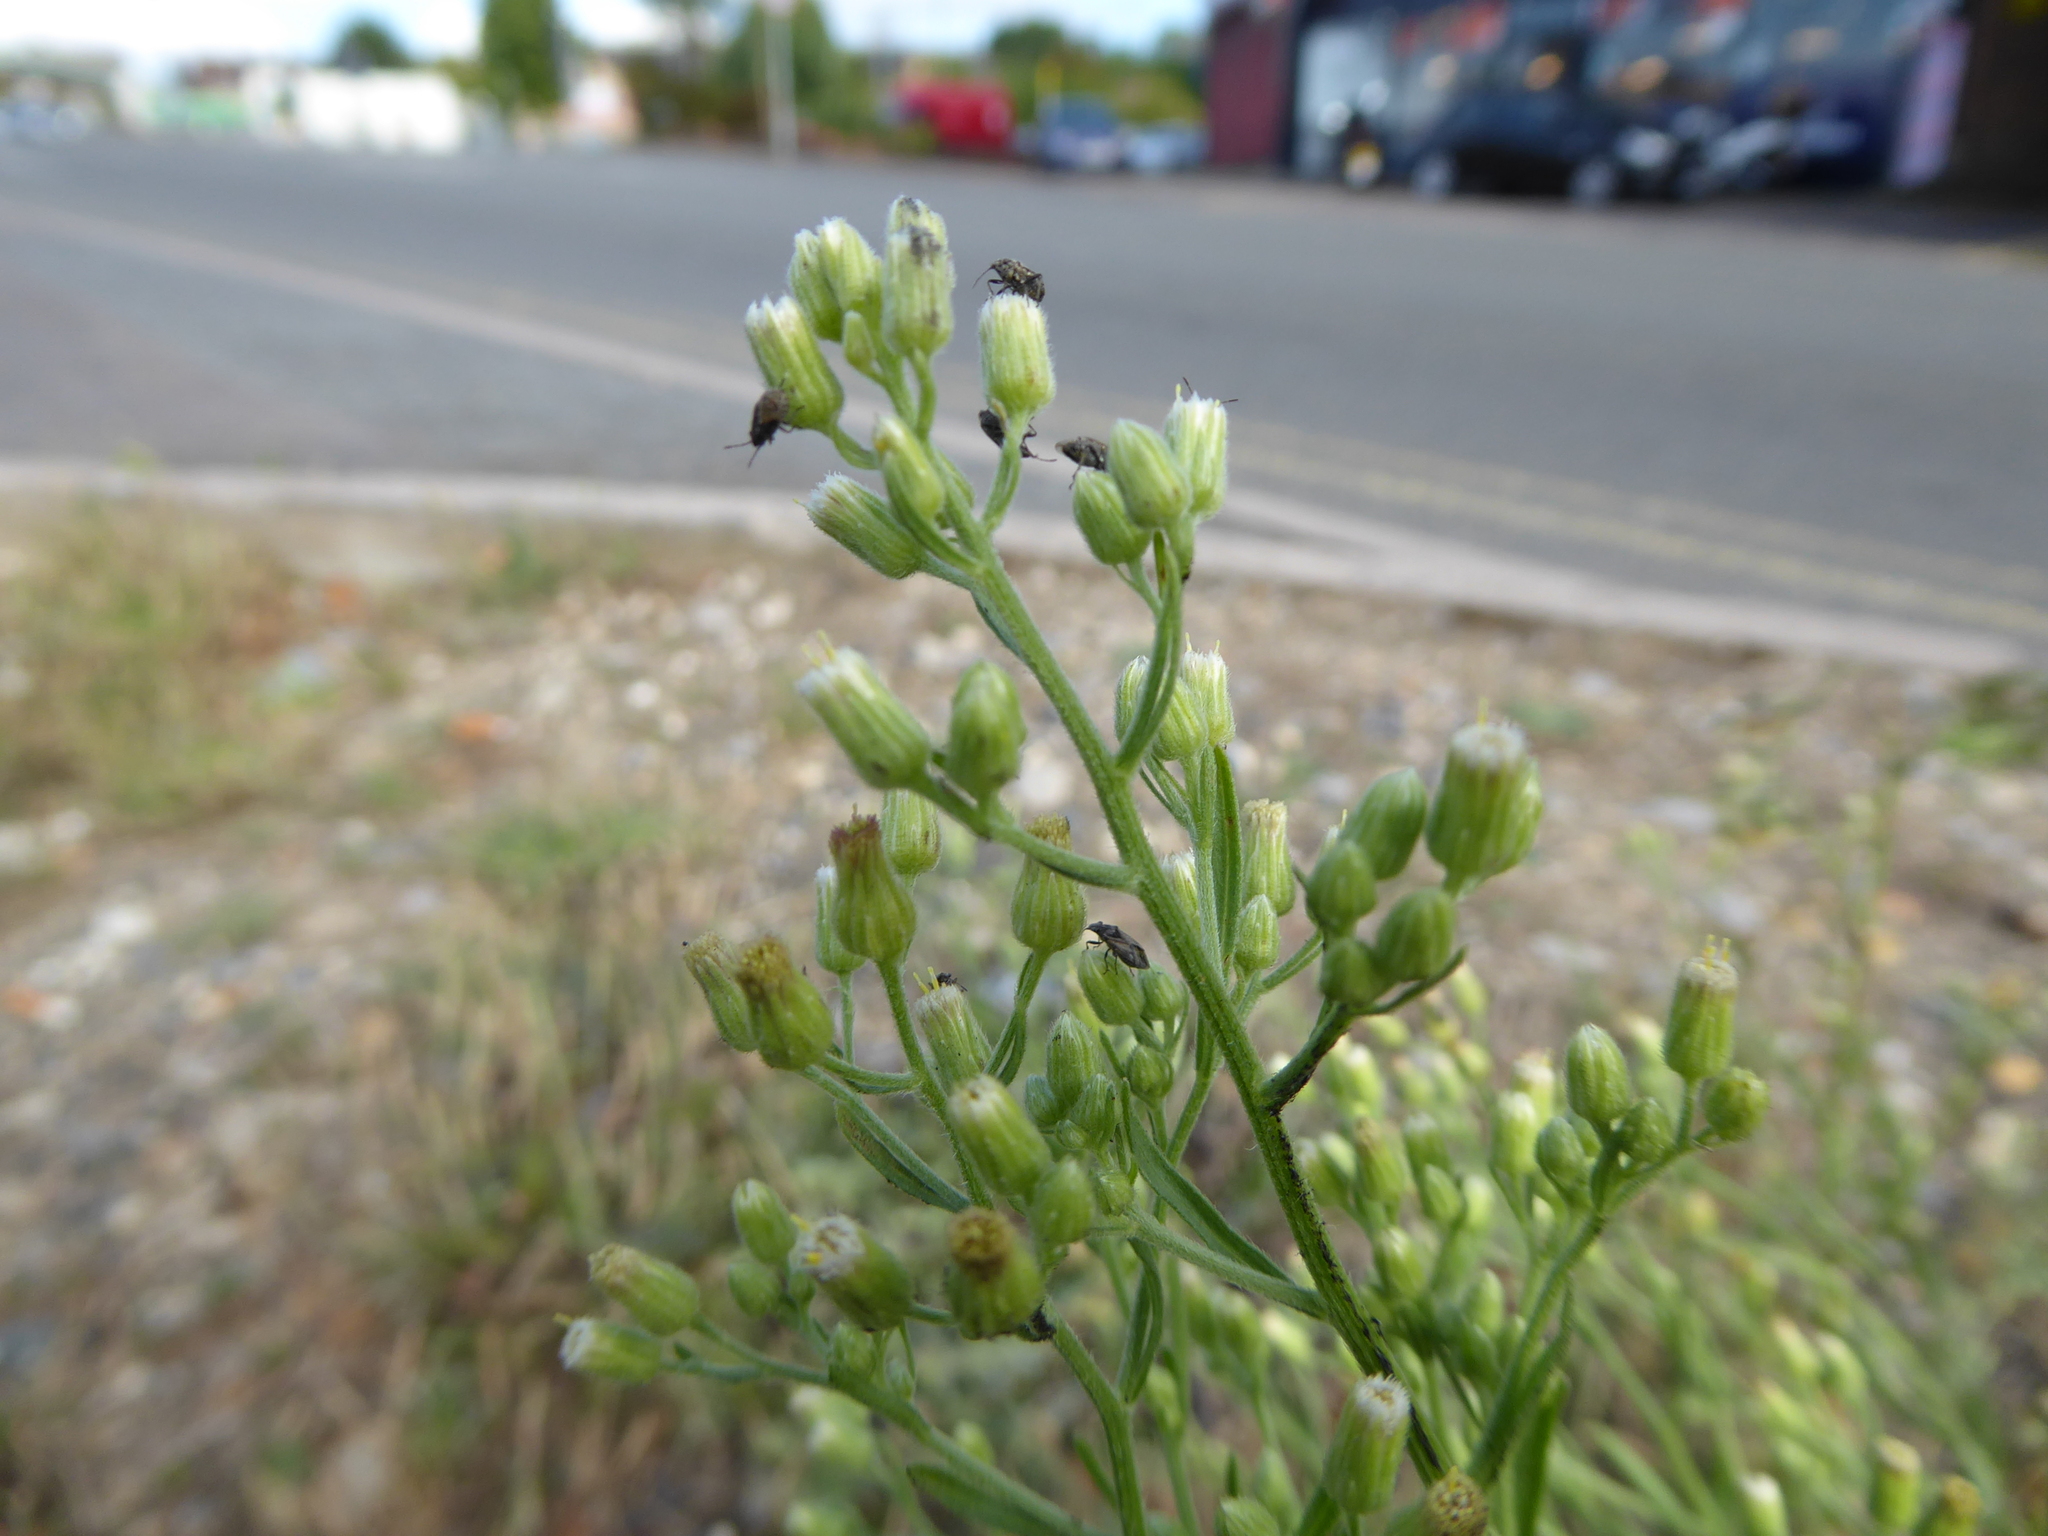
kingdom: Animalia
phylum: Arthropoda
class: Insecta
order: Hemiptera
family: Lygaeidae
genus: Nysius
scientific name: Nysius
